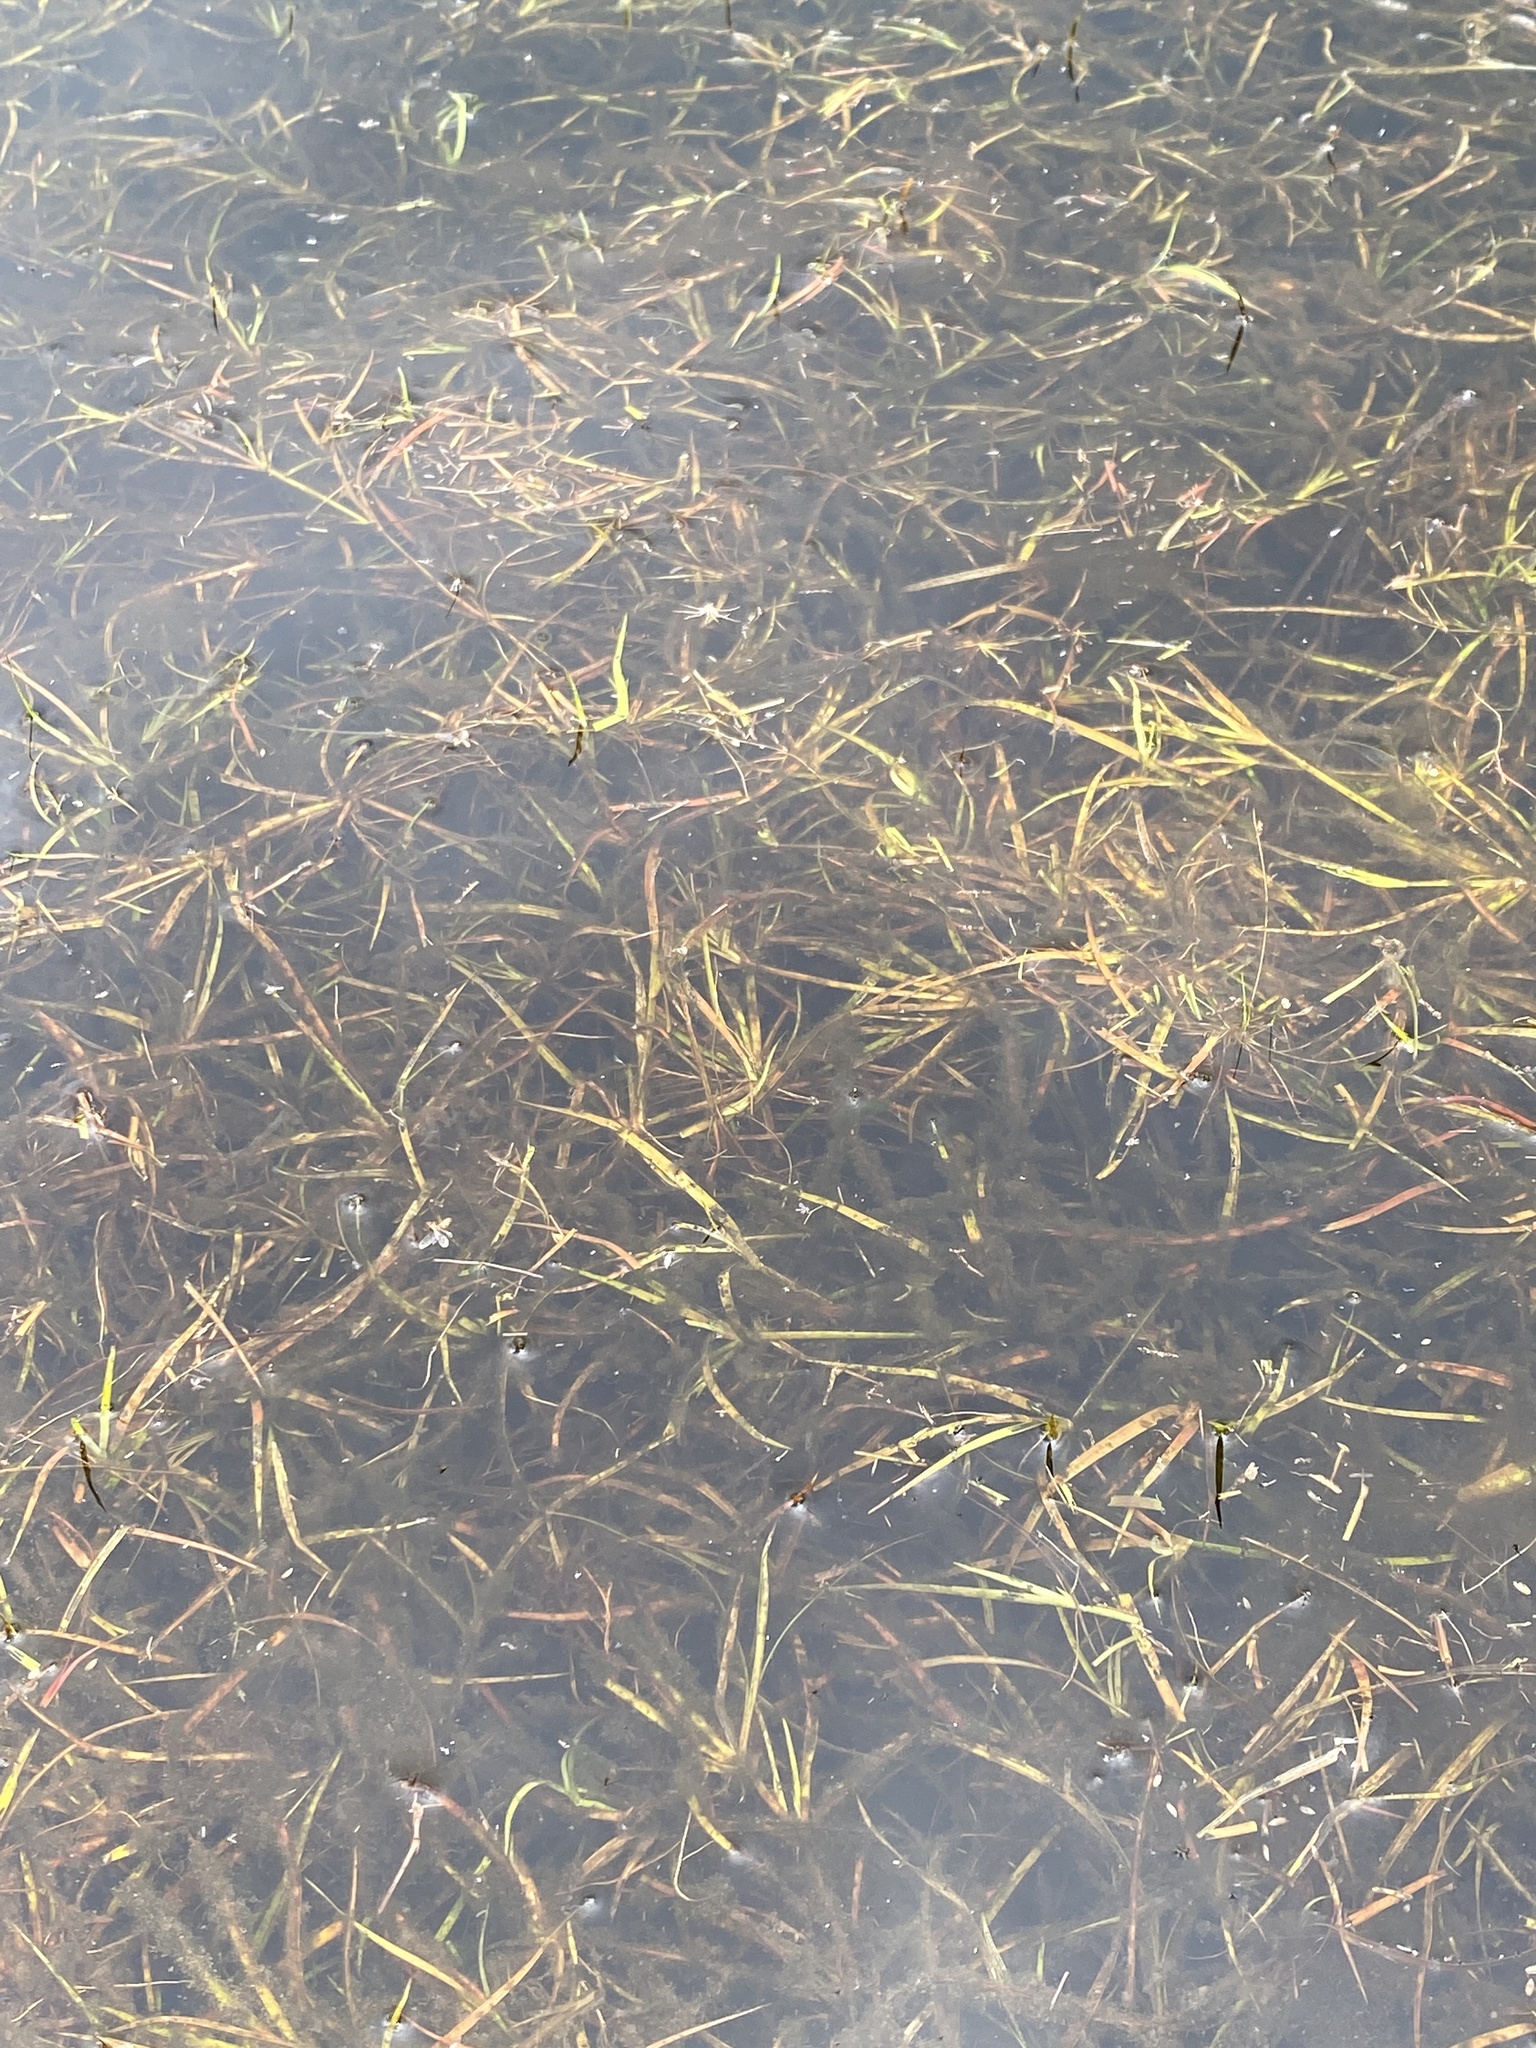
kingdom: Plantae
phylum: Tracheophyta
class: Liliopsida
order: Poales
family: Juncaceae
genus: Juncus
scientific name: Juncus repens
